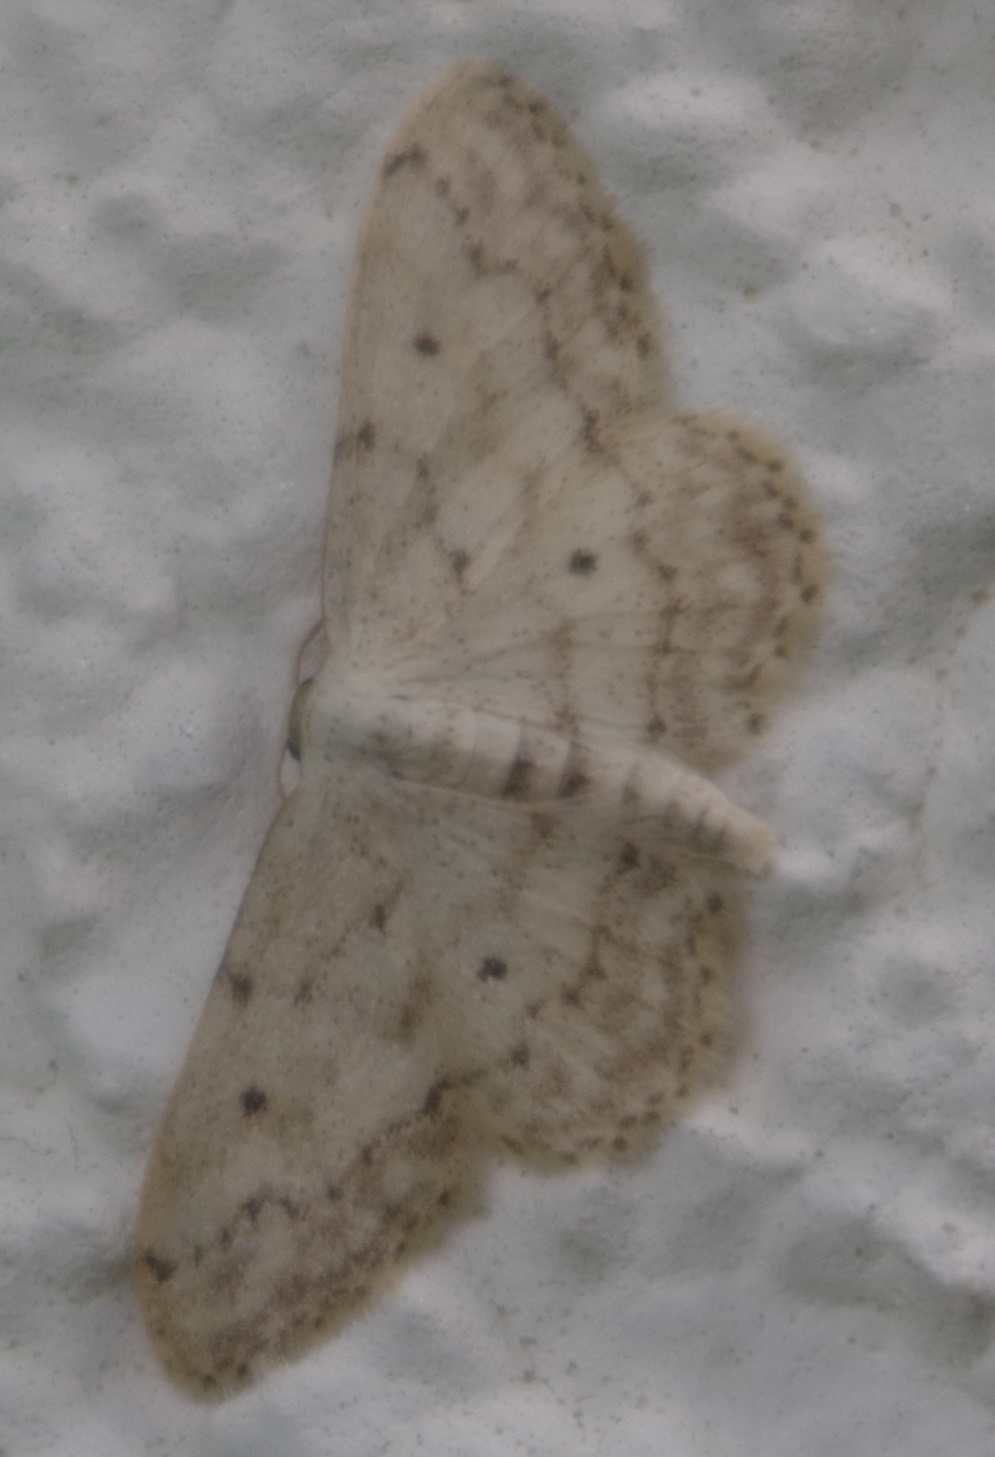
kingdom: Animalia
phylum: Arthropoda
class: Insecta
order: Lepidoptera
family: Geometridae
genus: Idaea
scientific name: Idaea seriata
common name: Small dusty wave
